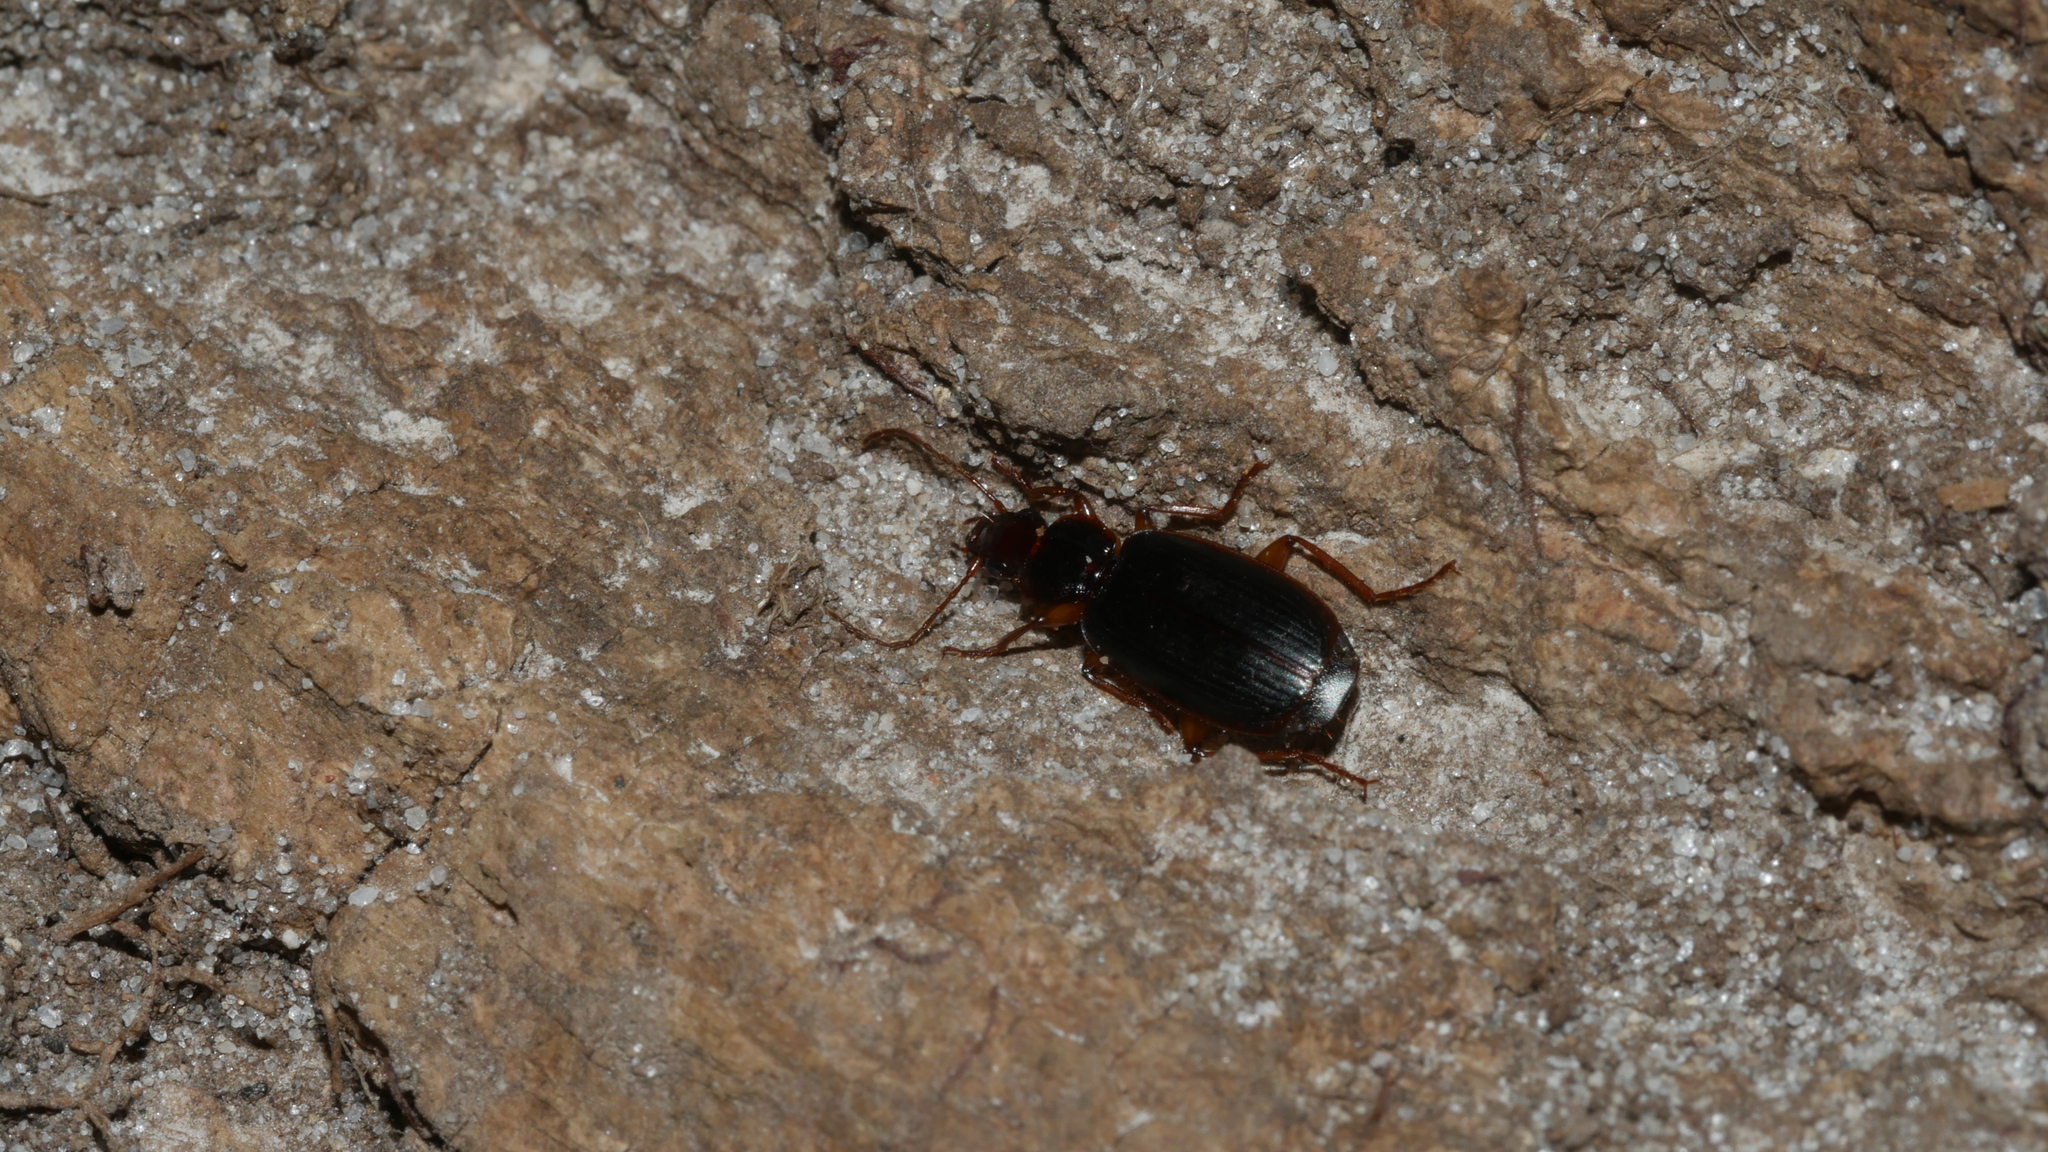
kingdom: Animalia
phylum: Arthropoda
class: Insecta
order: Coleoptera
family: Carabidae
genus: Pinacodera
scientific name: Pinacodera limbata
